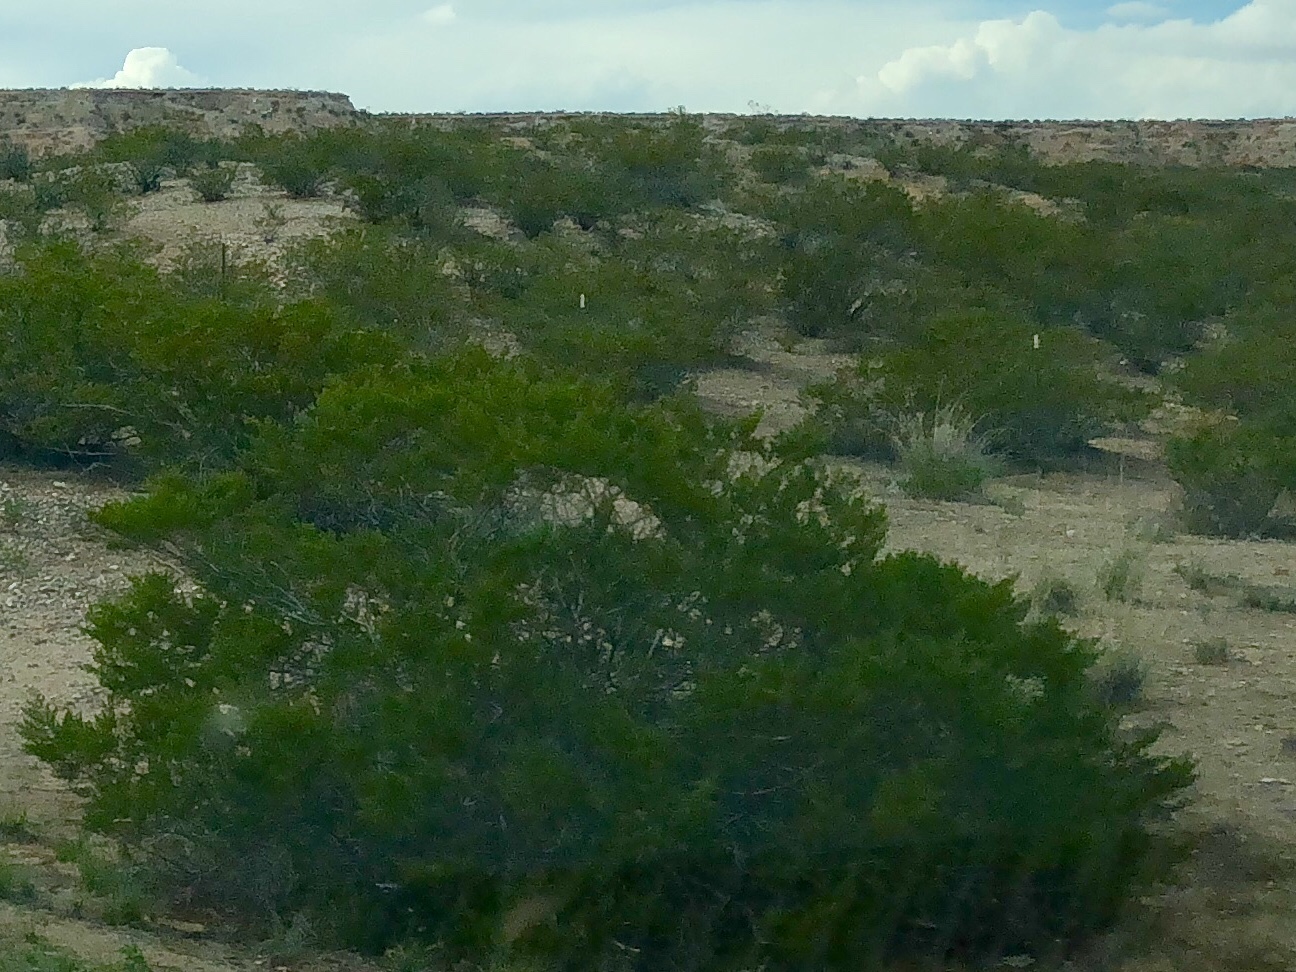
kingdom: Plantae
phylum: Tracheophyta
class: Magnoliopsida
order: Zygophyllales
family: Zygophyllaceae
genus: Larrea
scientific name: Larrea tridentata
